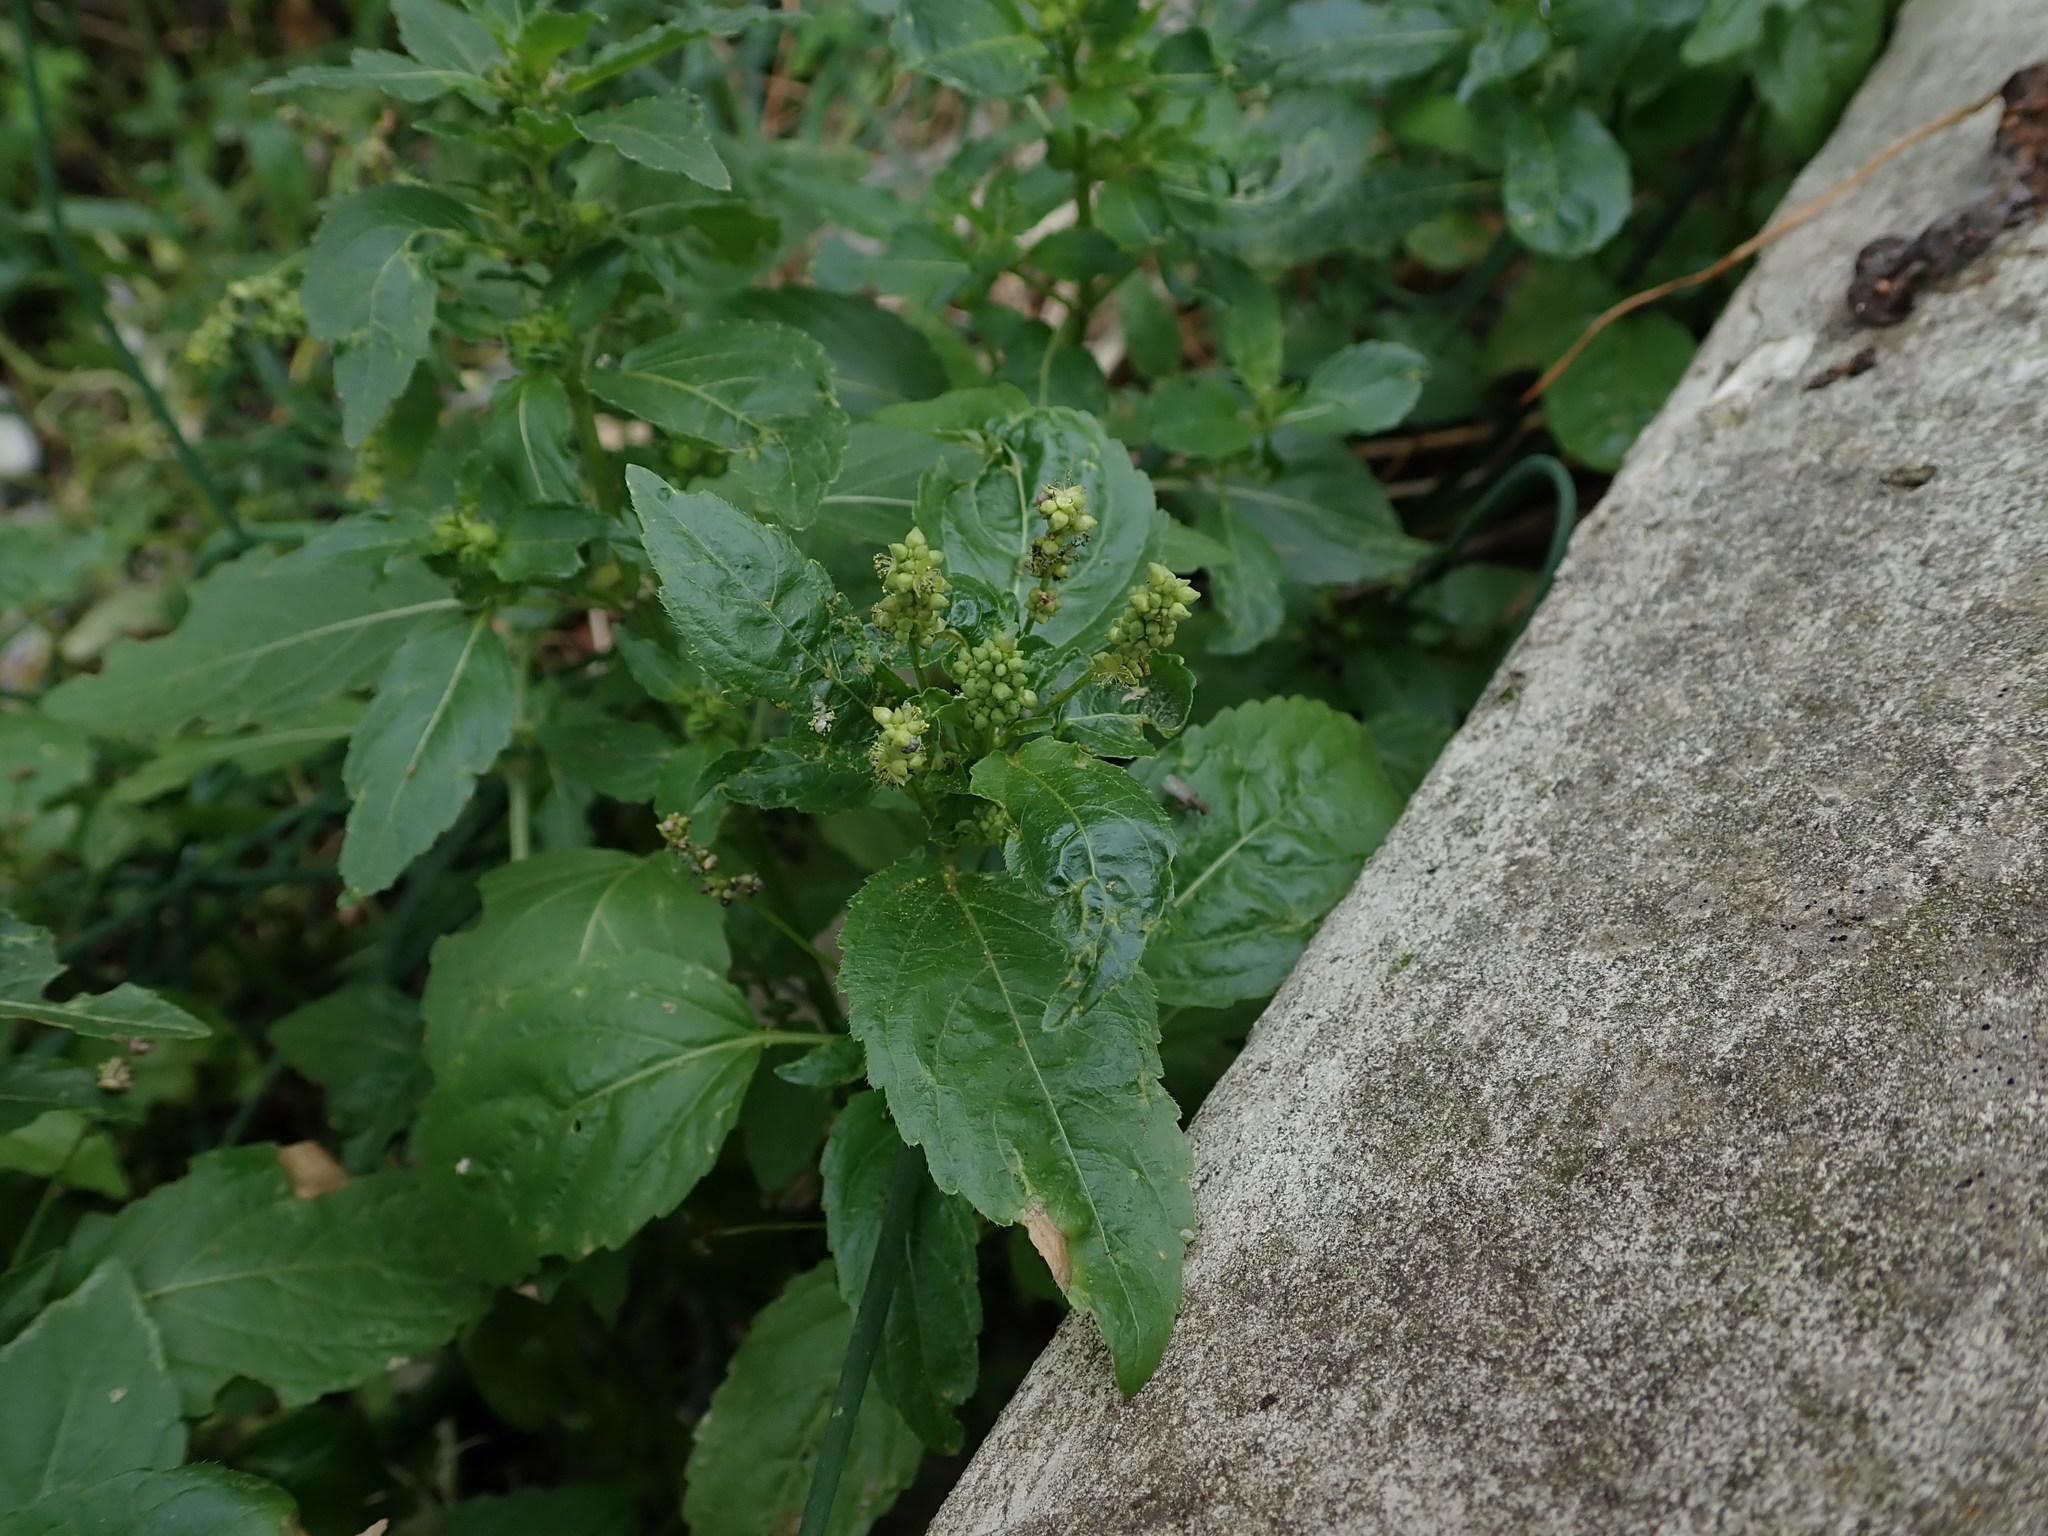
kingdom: Plantae
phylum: Tracheophyta
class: Magnoliopsida
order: Malpighiales
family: Euphorbiaceae
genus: Mercurialis
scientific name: Mercurialis annua
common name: Annual mercury
